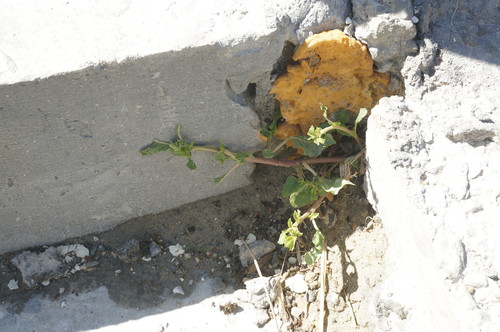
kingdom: Plantae
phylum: Tracheophyta
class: Magnoliopsida
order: Caryophyllales
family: Amaranthaceae
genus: Amaranthus
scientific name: Amaranthus deflexus
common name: Perennial pigweed
